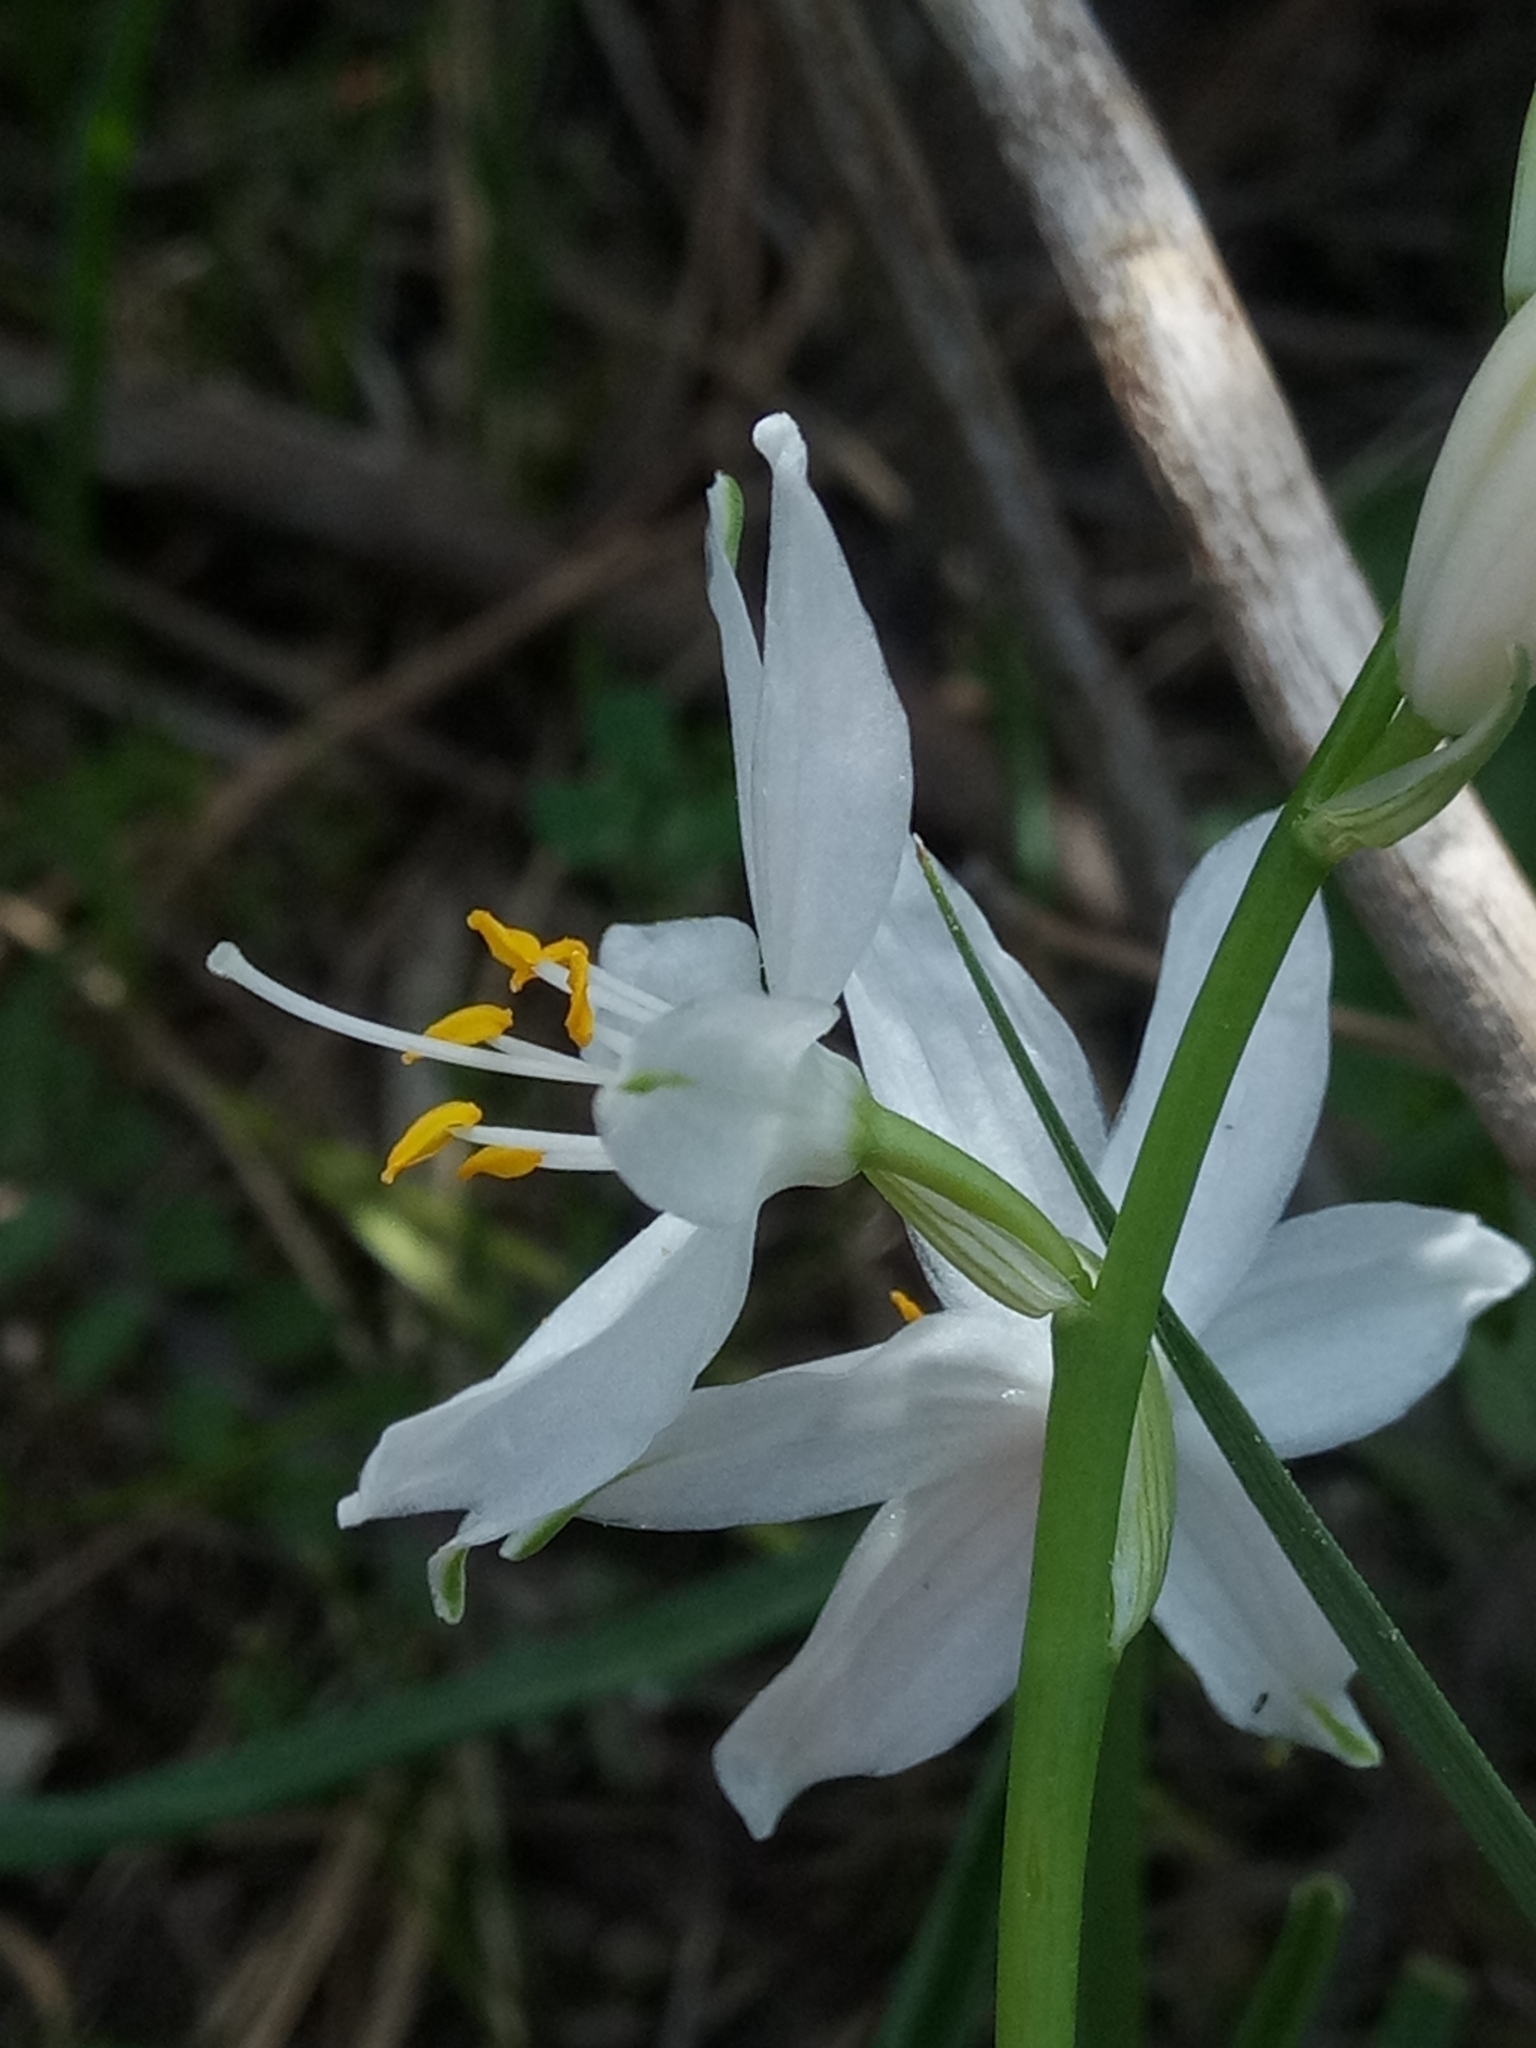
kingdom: Plantae
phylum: Tracheophyta
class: Liliopsida
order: Asparagales
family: Asparagaceae
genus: Anthericum
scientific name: Anthericum baeticum
